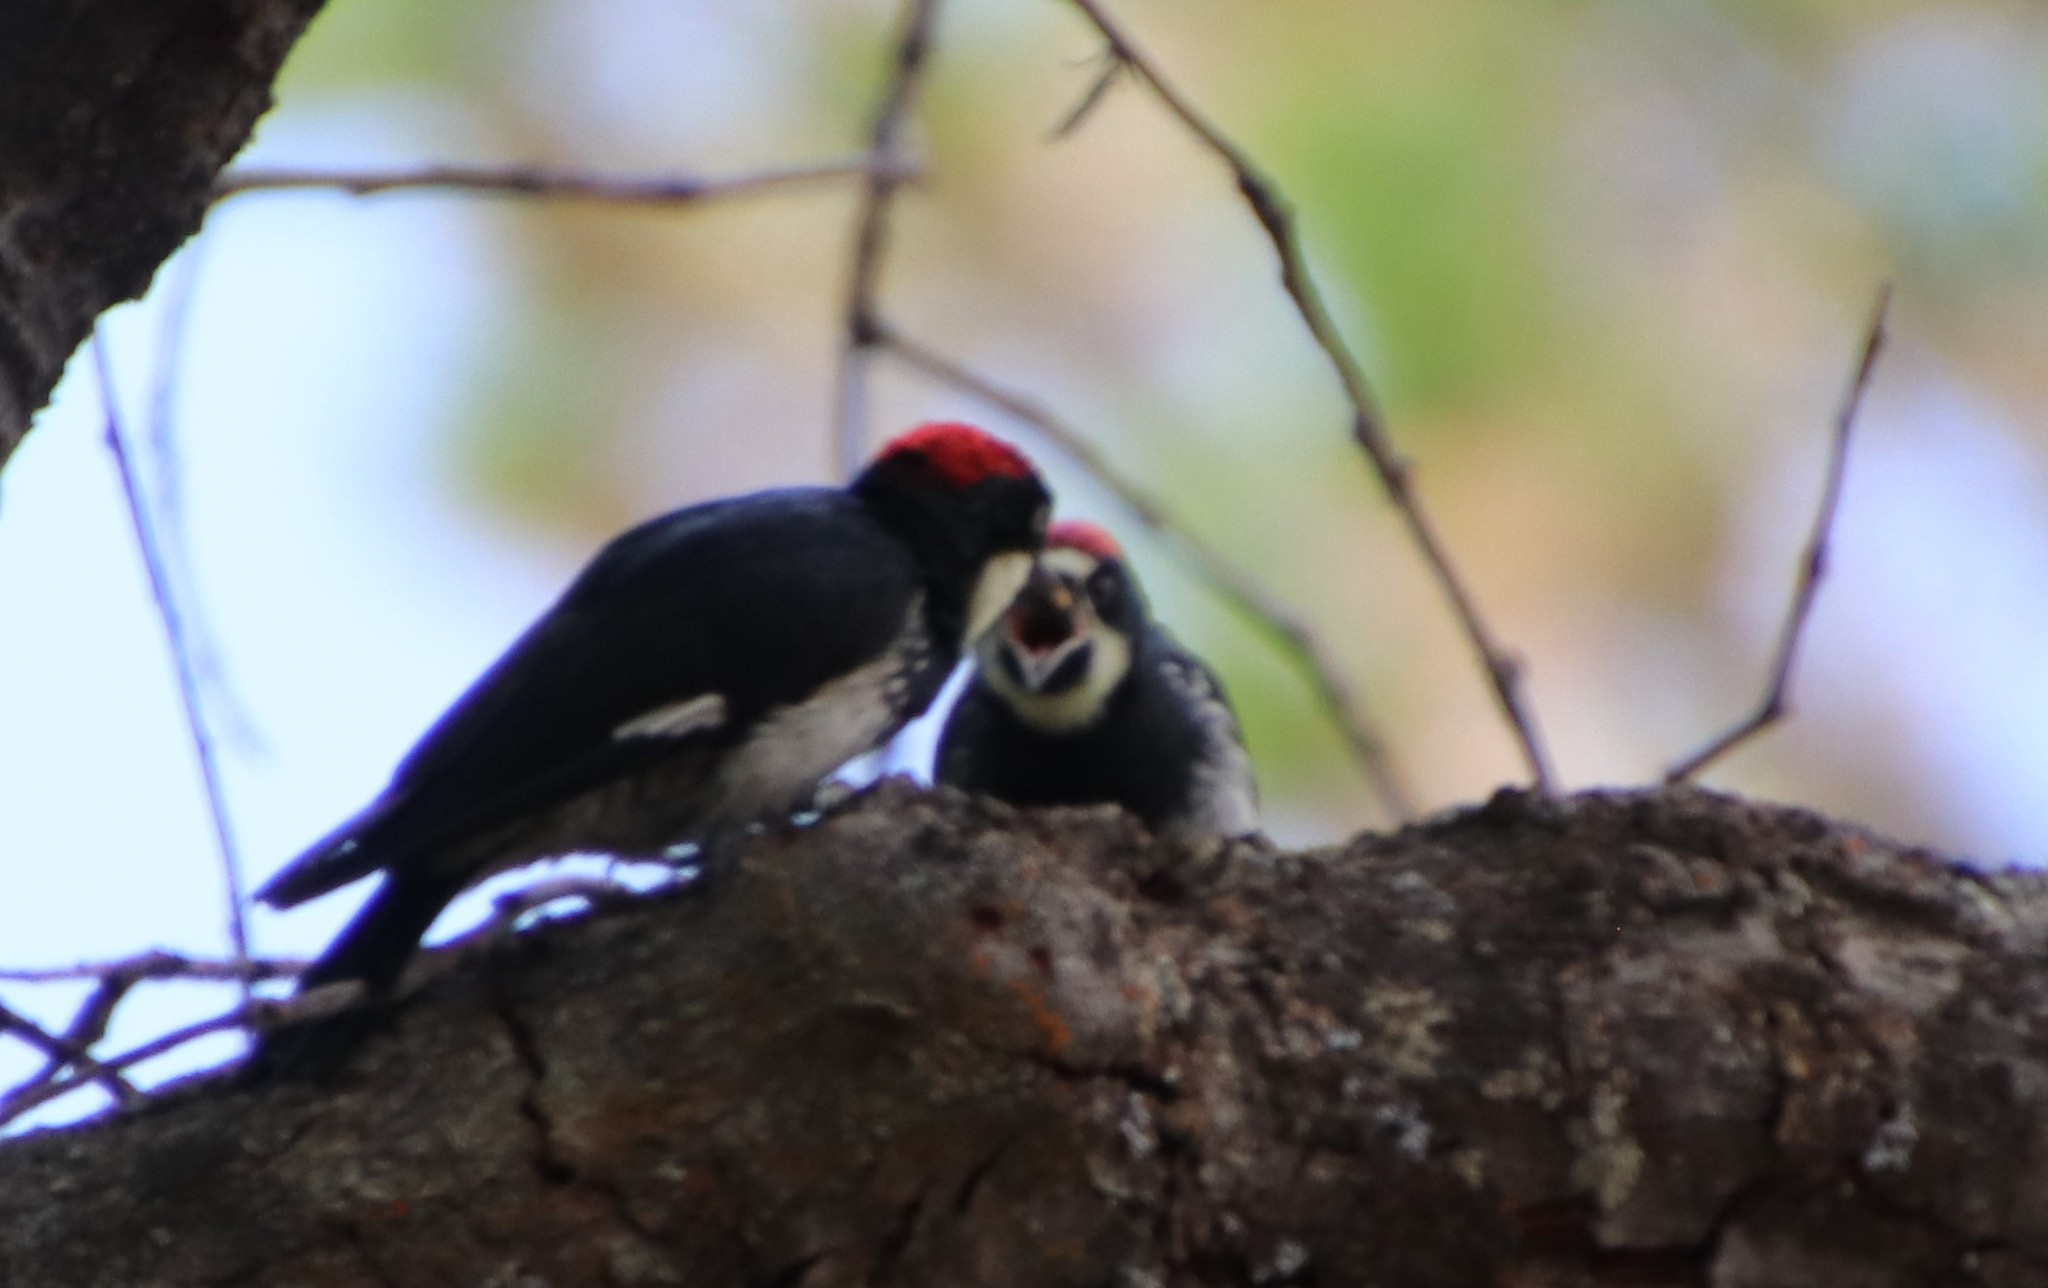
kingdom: Animalia
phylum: Chordata
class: Aves
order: Piciformes
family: Picidae
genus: Melanerpes
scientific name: Melanerpes formicivorus
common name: Acorn woodpecker
